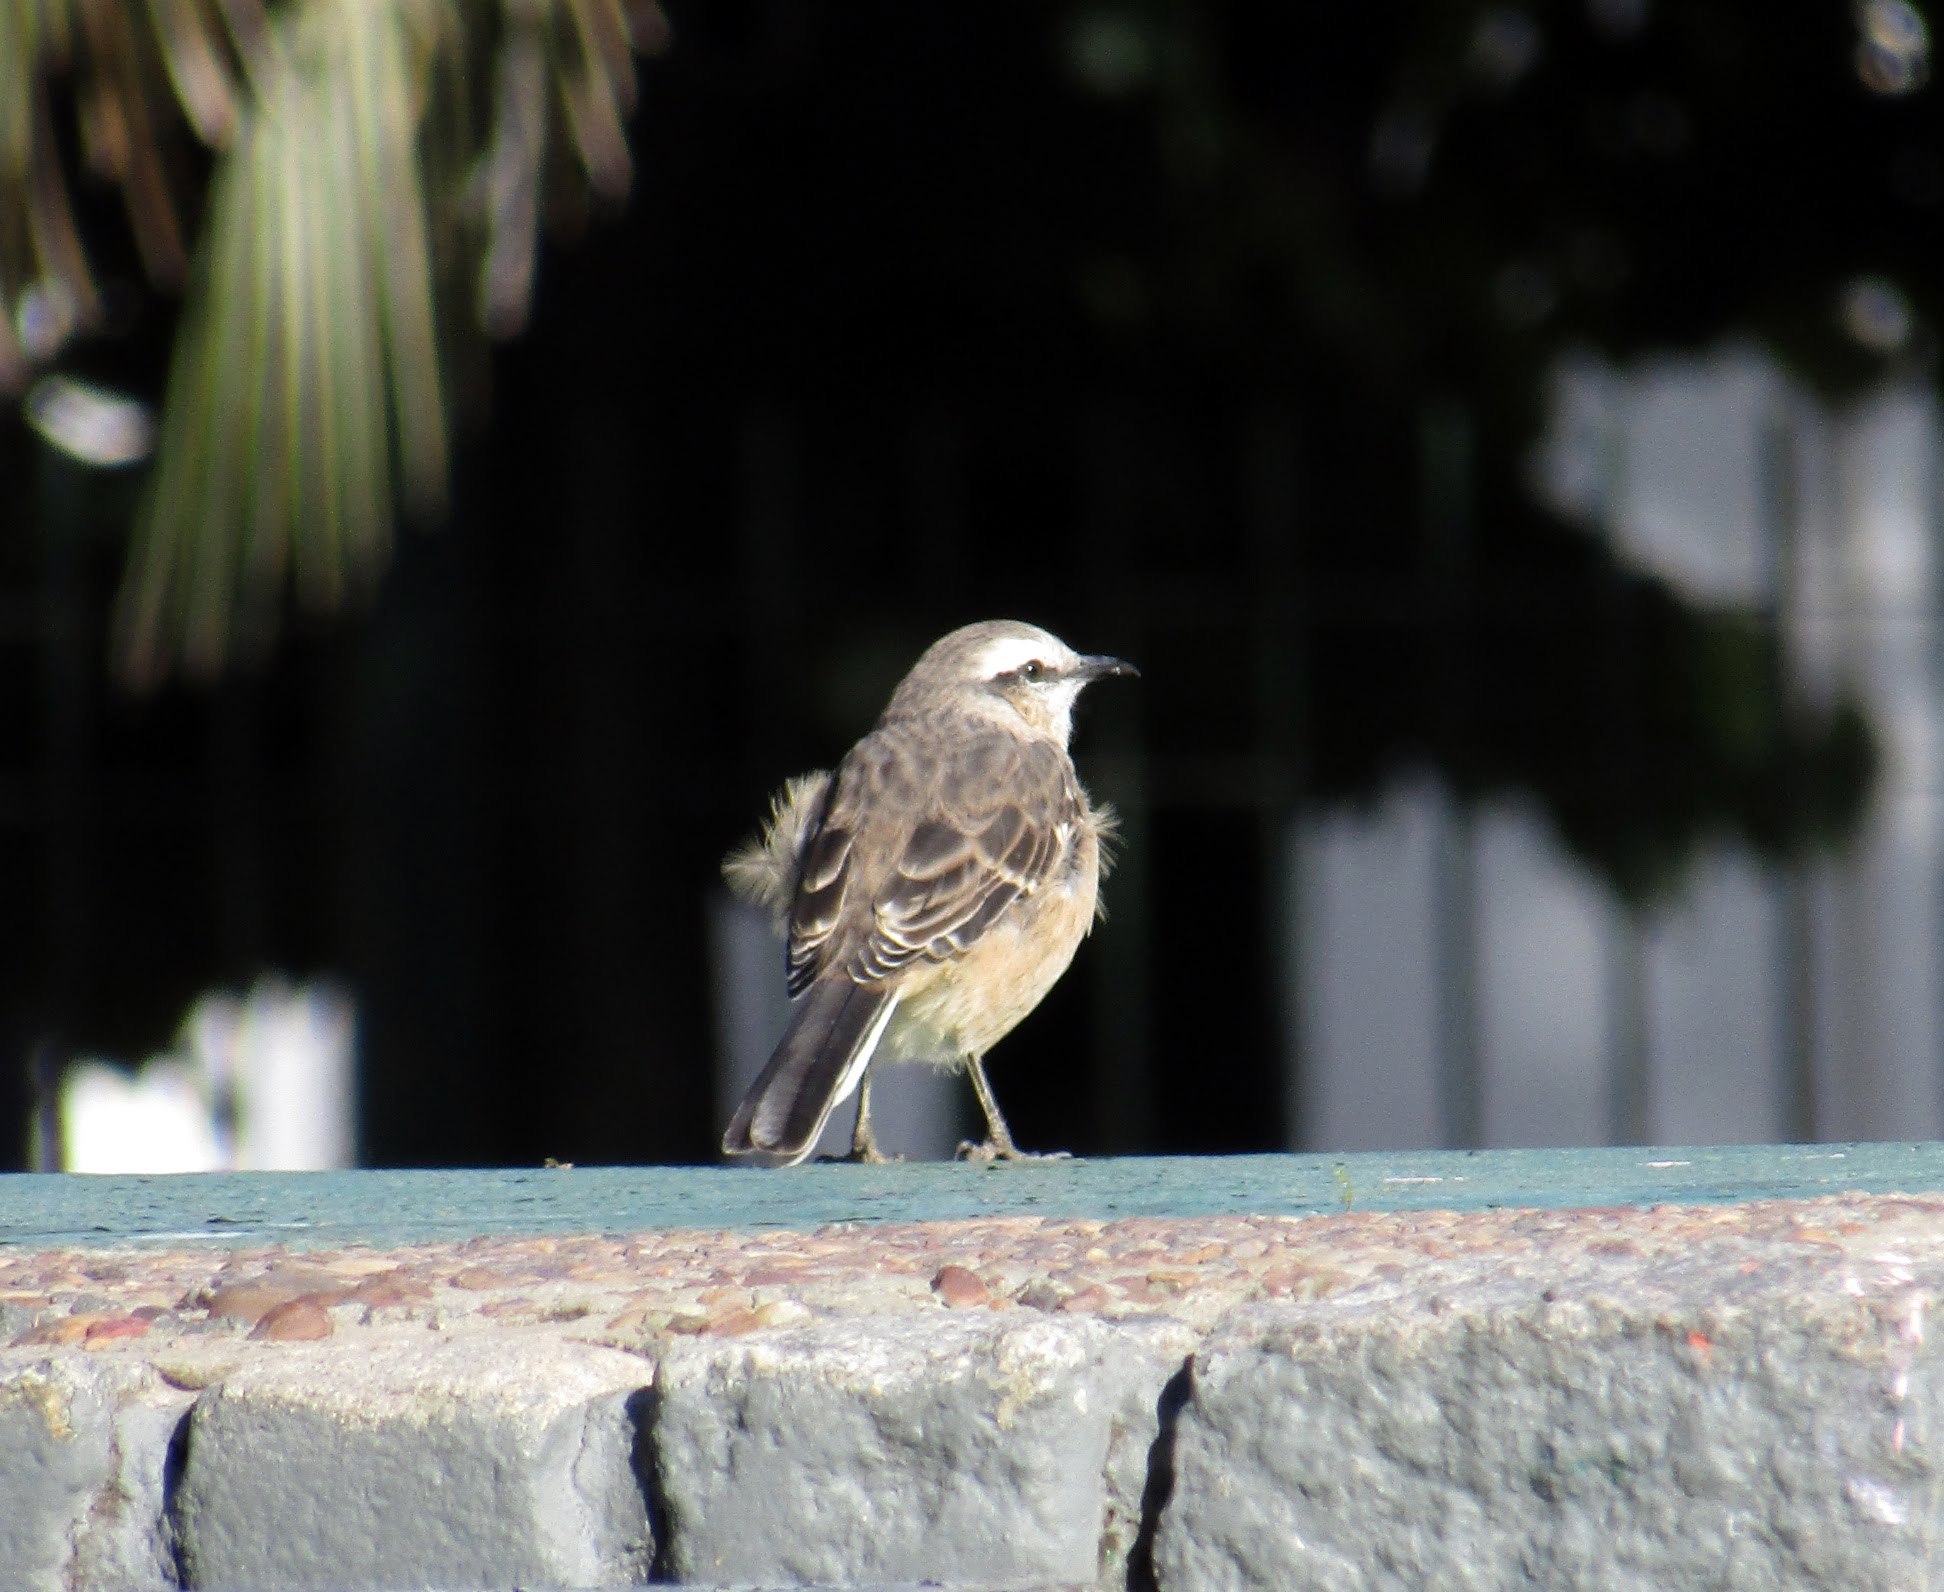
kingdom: Animalia
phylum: Chordata
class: Aves
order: Passeriformes
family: Mimidae
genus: Mimus
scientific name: Mimus saturninus
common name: Chalk-browed mockingbird
